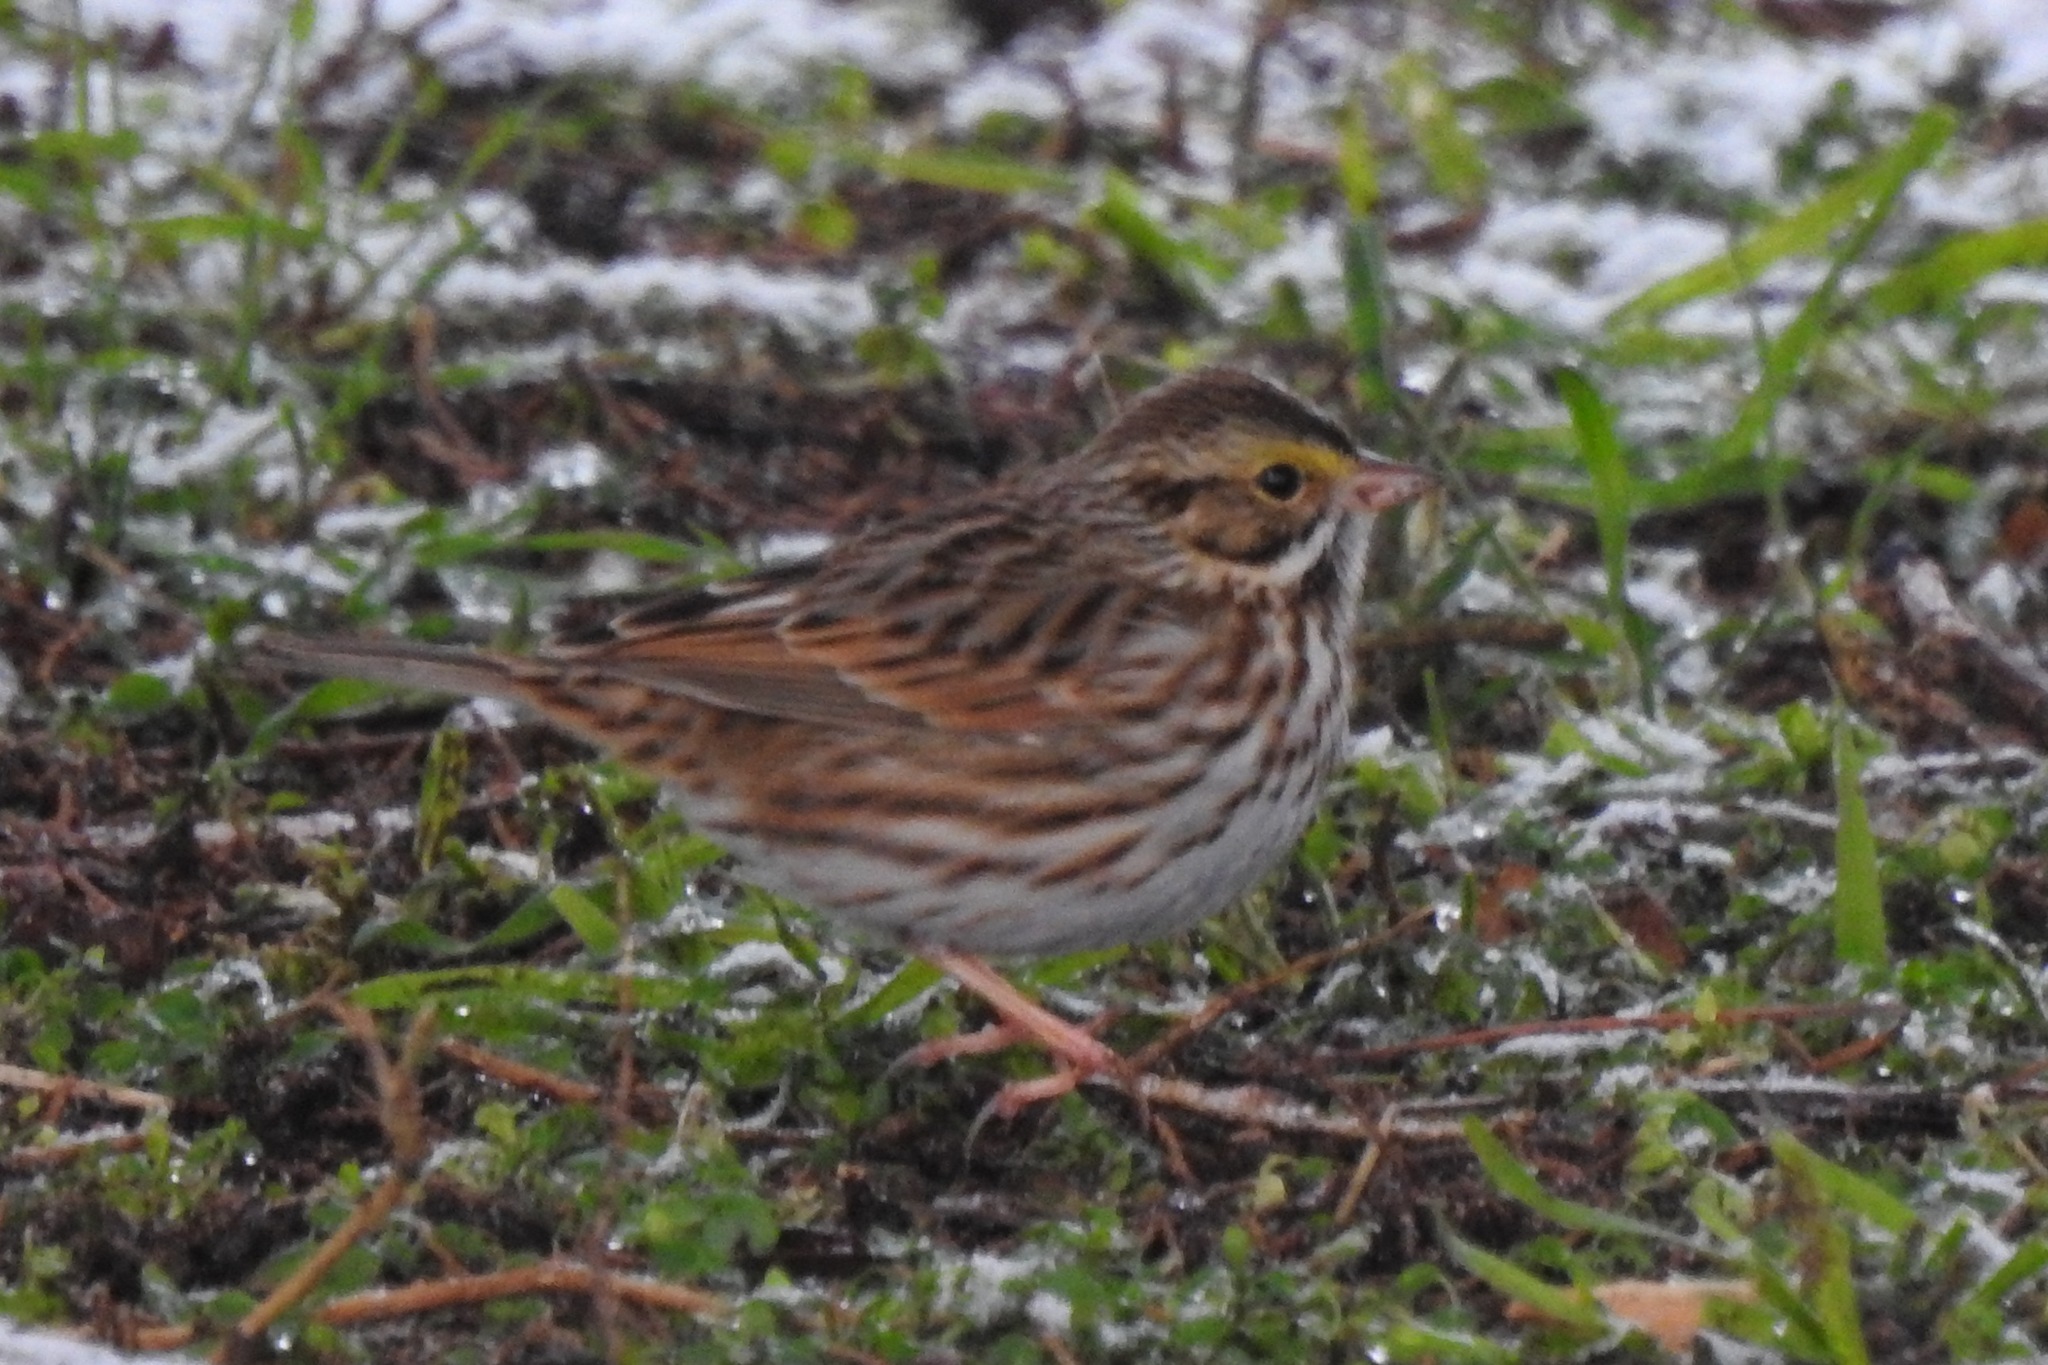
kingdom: Animalia
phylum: Chordata
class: Aves
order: Passeriformes
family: Passerellidae
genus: Passerculus
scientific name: Passerculus sandwichensis
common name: Savannah sparrow
